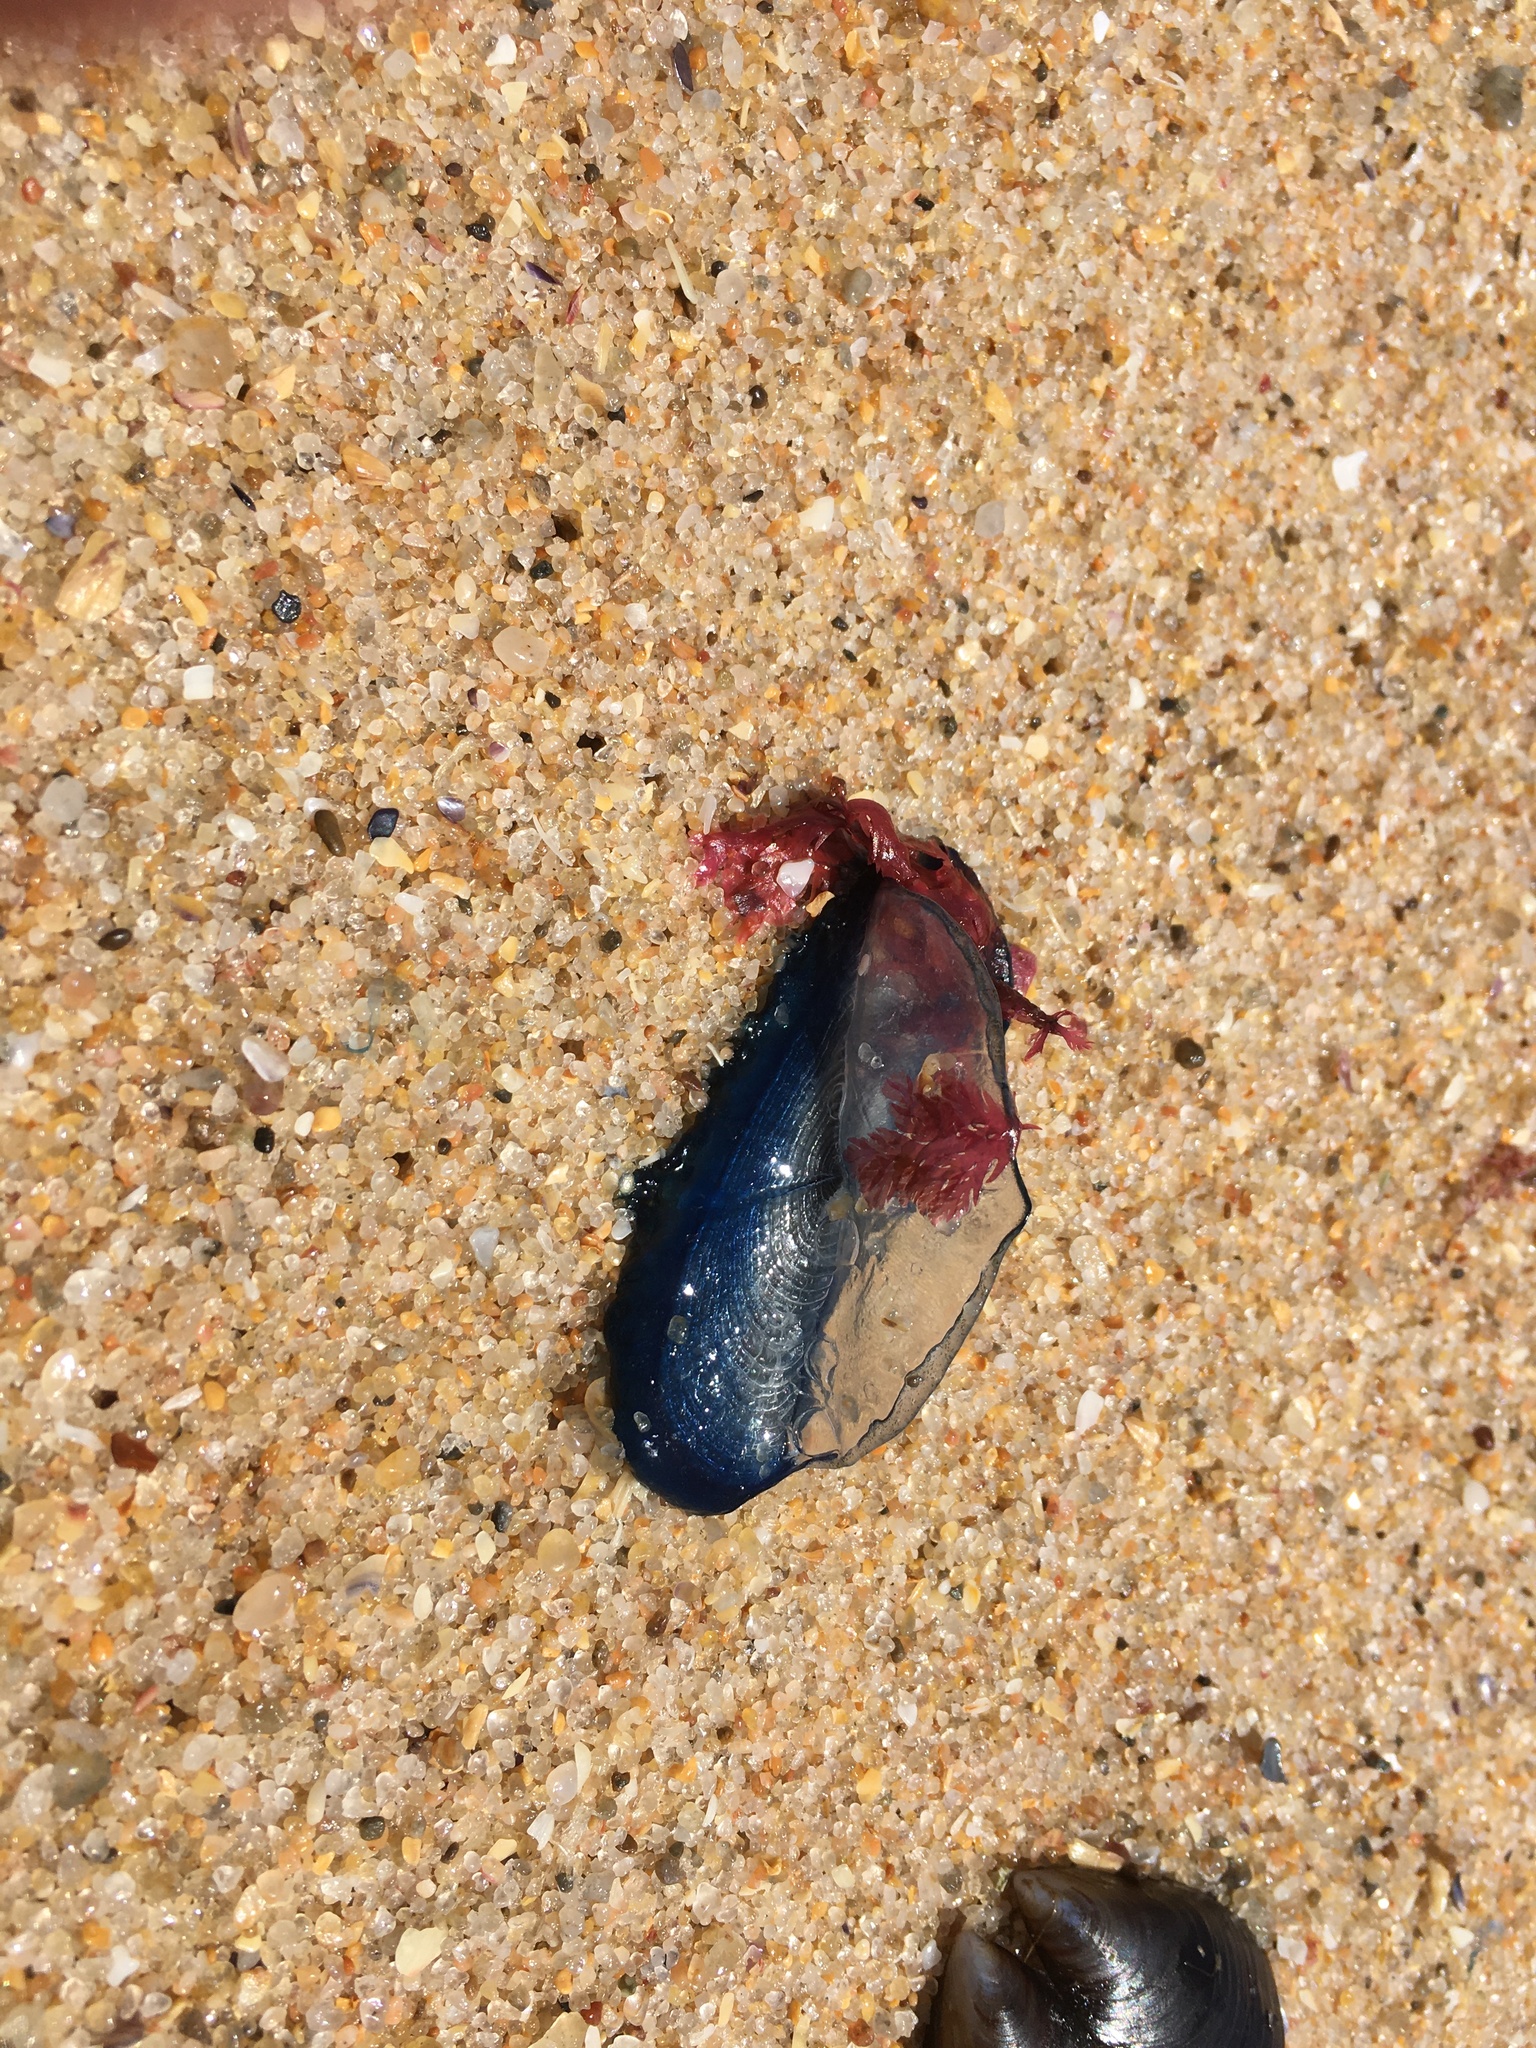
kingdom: Animalia
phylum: Cnidaria
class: Hydrozoa
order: Anthoathecata
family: Porpitidae
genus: Velella
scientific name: Velella velella
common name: By-the-wind-sailor
